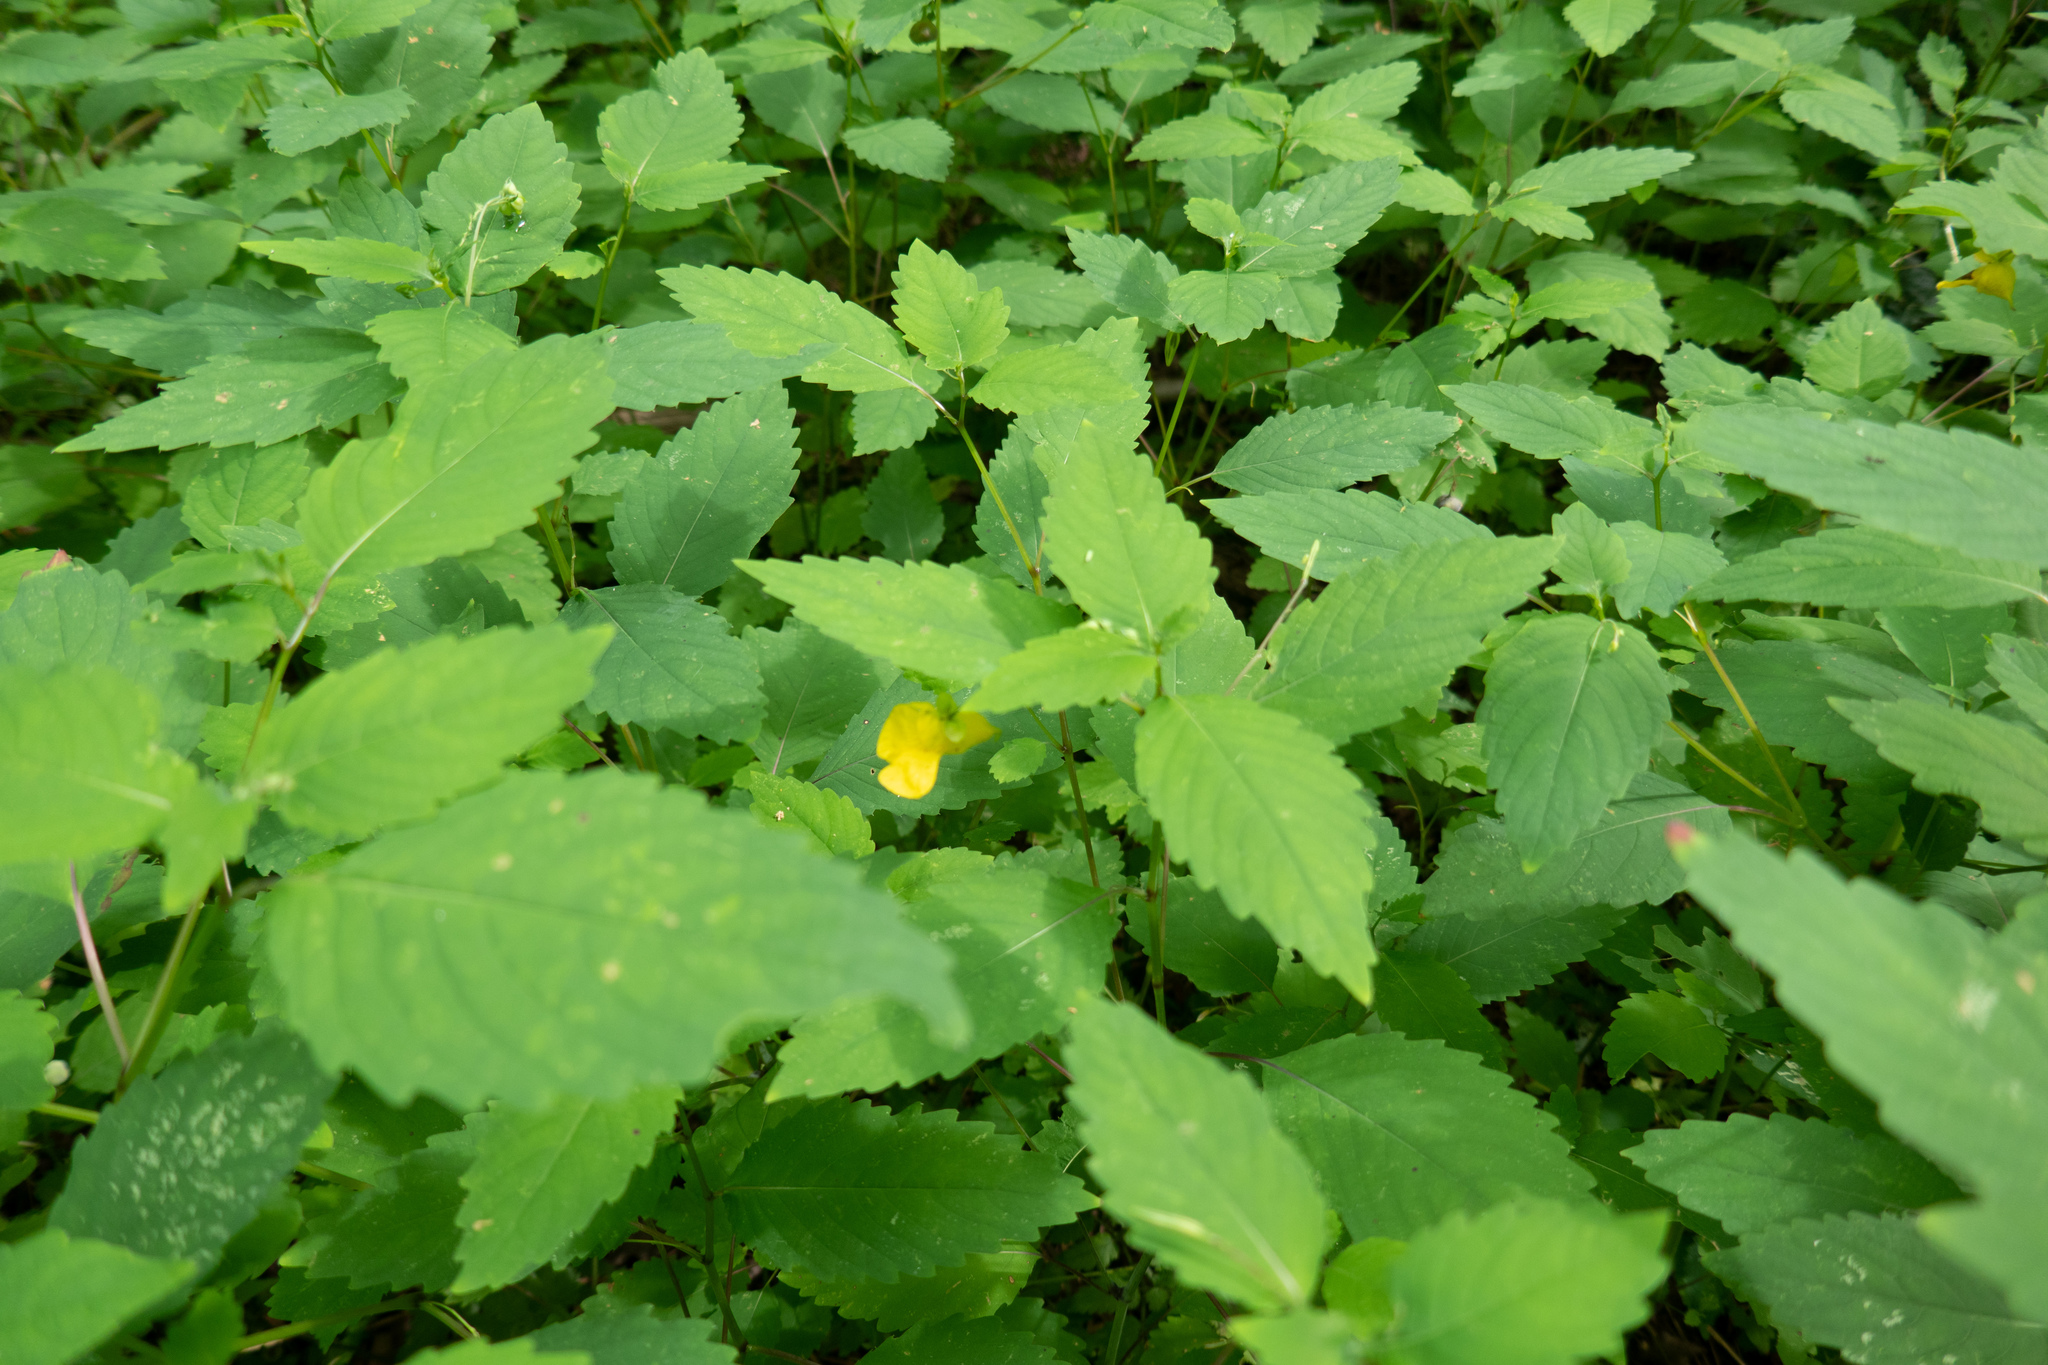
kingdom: Plantae
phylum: Tracheophyta
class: Magnoliopsida
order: Ericales
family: Balsaminaceae
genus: Impatiens
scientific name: Impatiens pallida
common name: Pale snapweed
